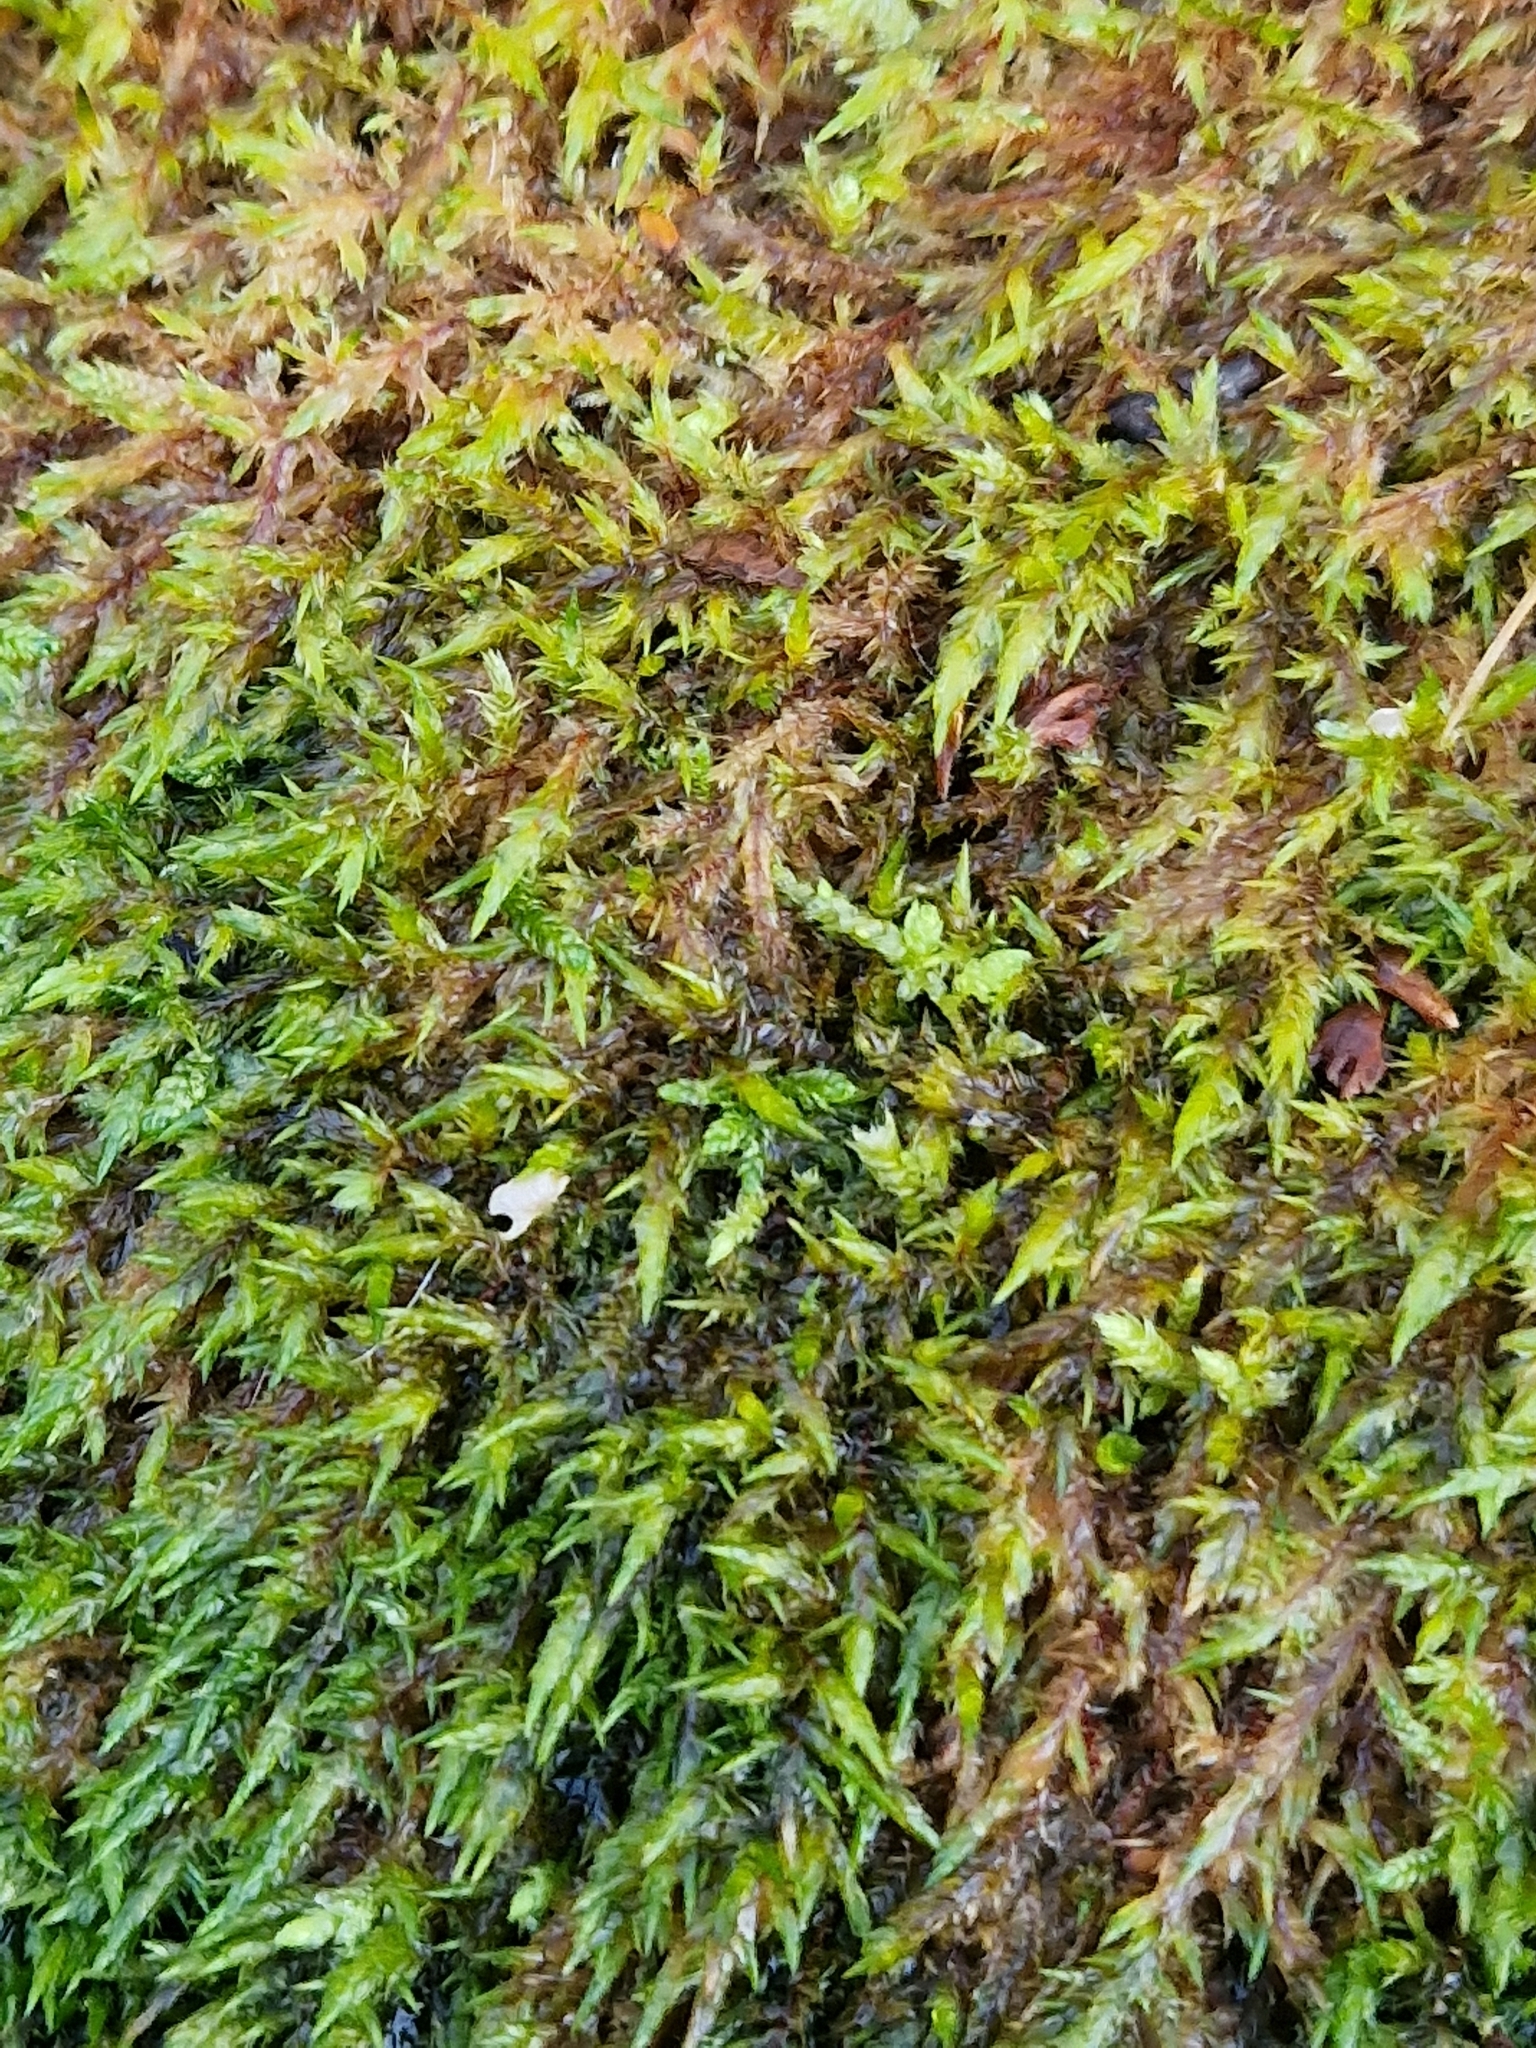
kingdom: Fungi
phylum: Basidiomycota
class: Agaricomycetes
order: Agaricales
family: Hygrophoraceae
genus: Arrhenia
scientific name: Arrhenia retiruga
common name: Small moss oysterling
